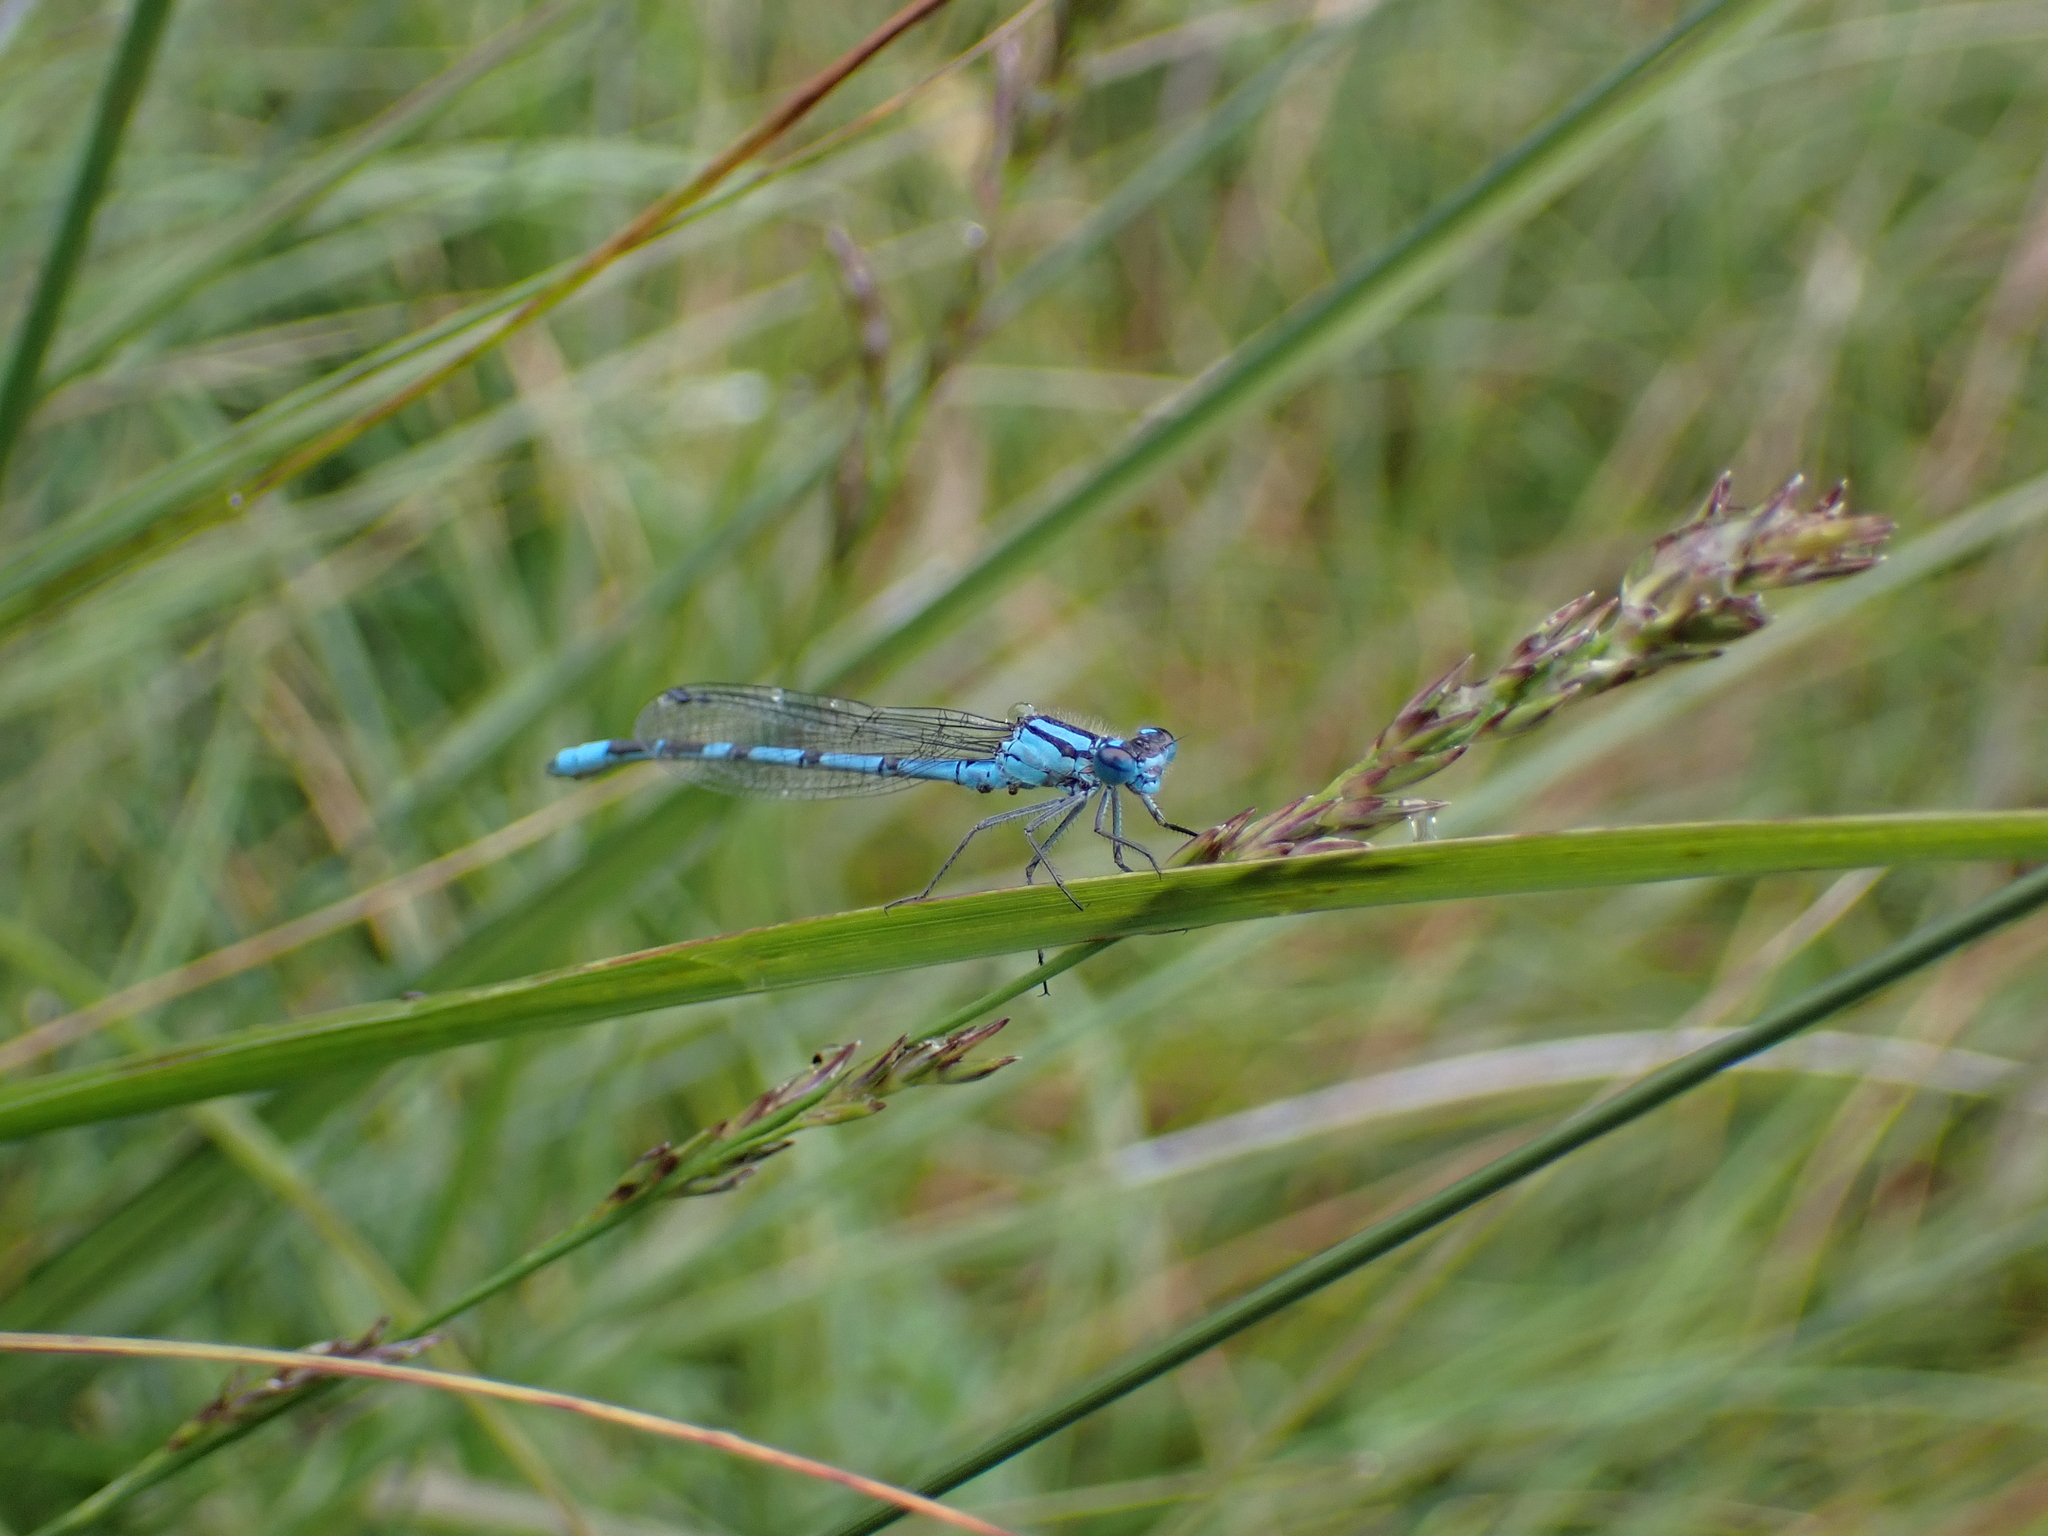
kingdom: Animalia
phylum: Arthropoda
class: Insecta
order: Odonata
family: Coenagrionidae
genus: Enallagma
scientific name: Enallagma cyathigerum
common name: Common blue damselfly
